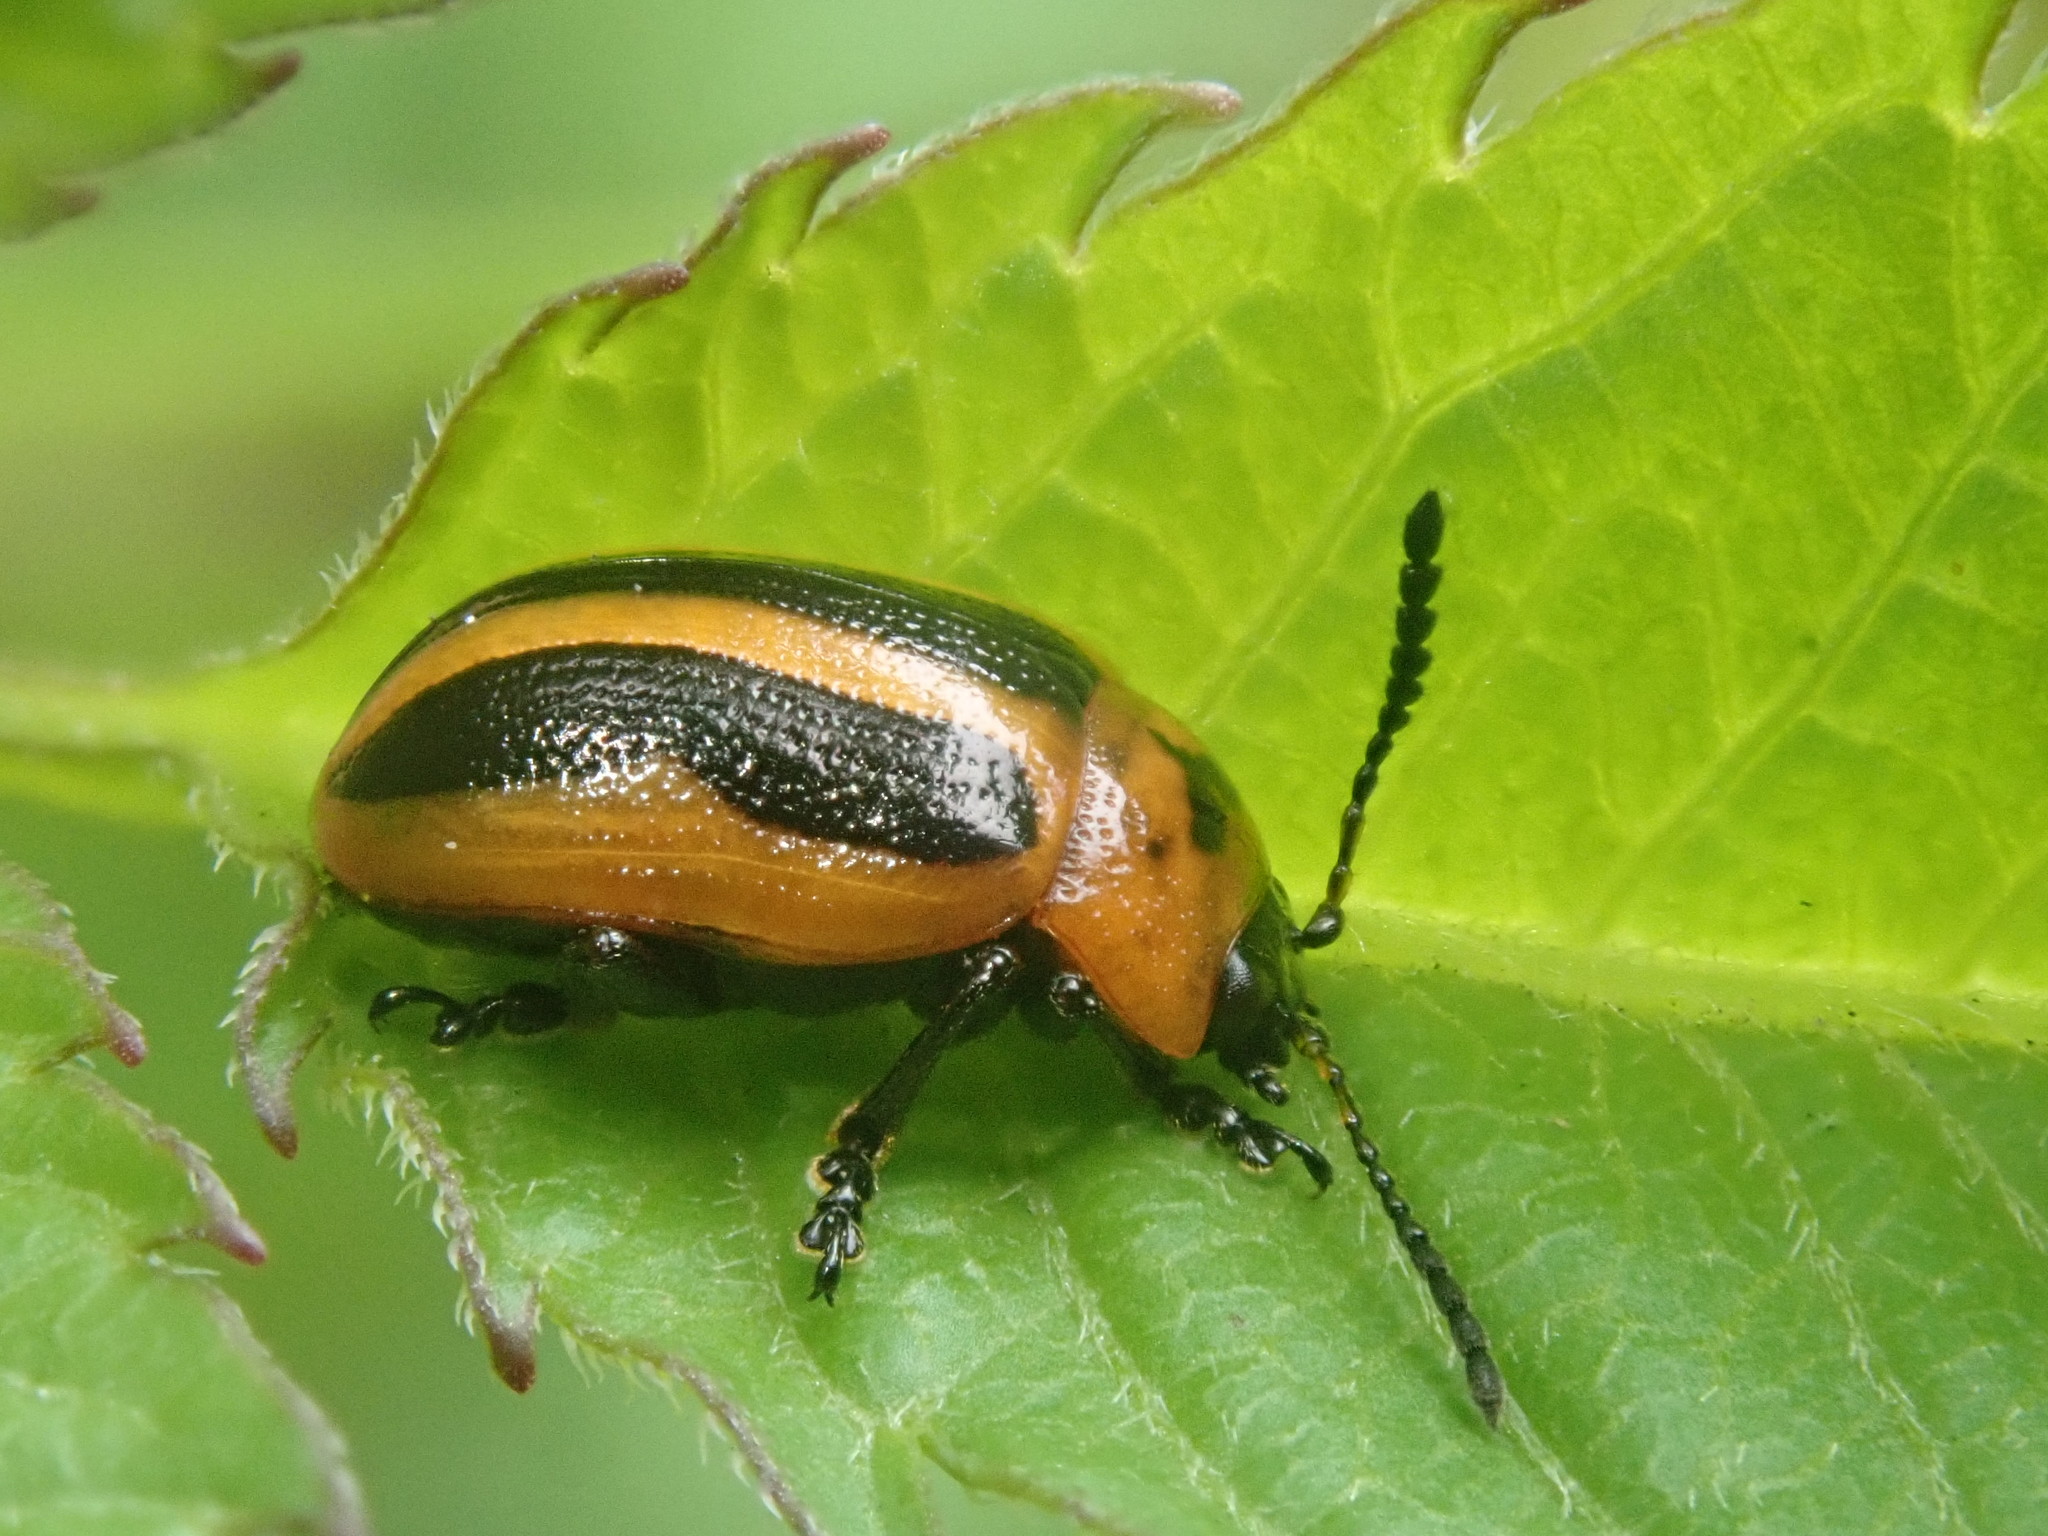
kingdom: Animalia
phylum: Arthropoda
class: Insecta
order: Coleoptera
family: Chrysomelidae
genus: Calligrapha
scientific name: Calligrapha californica
